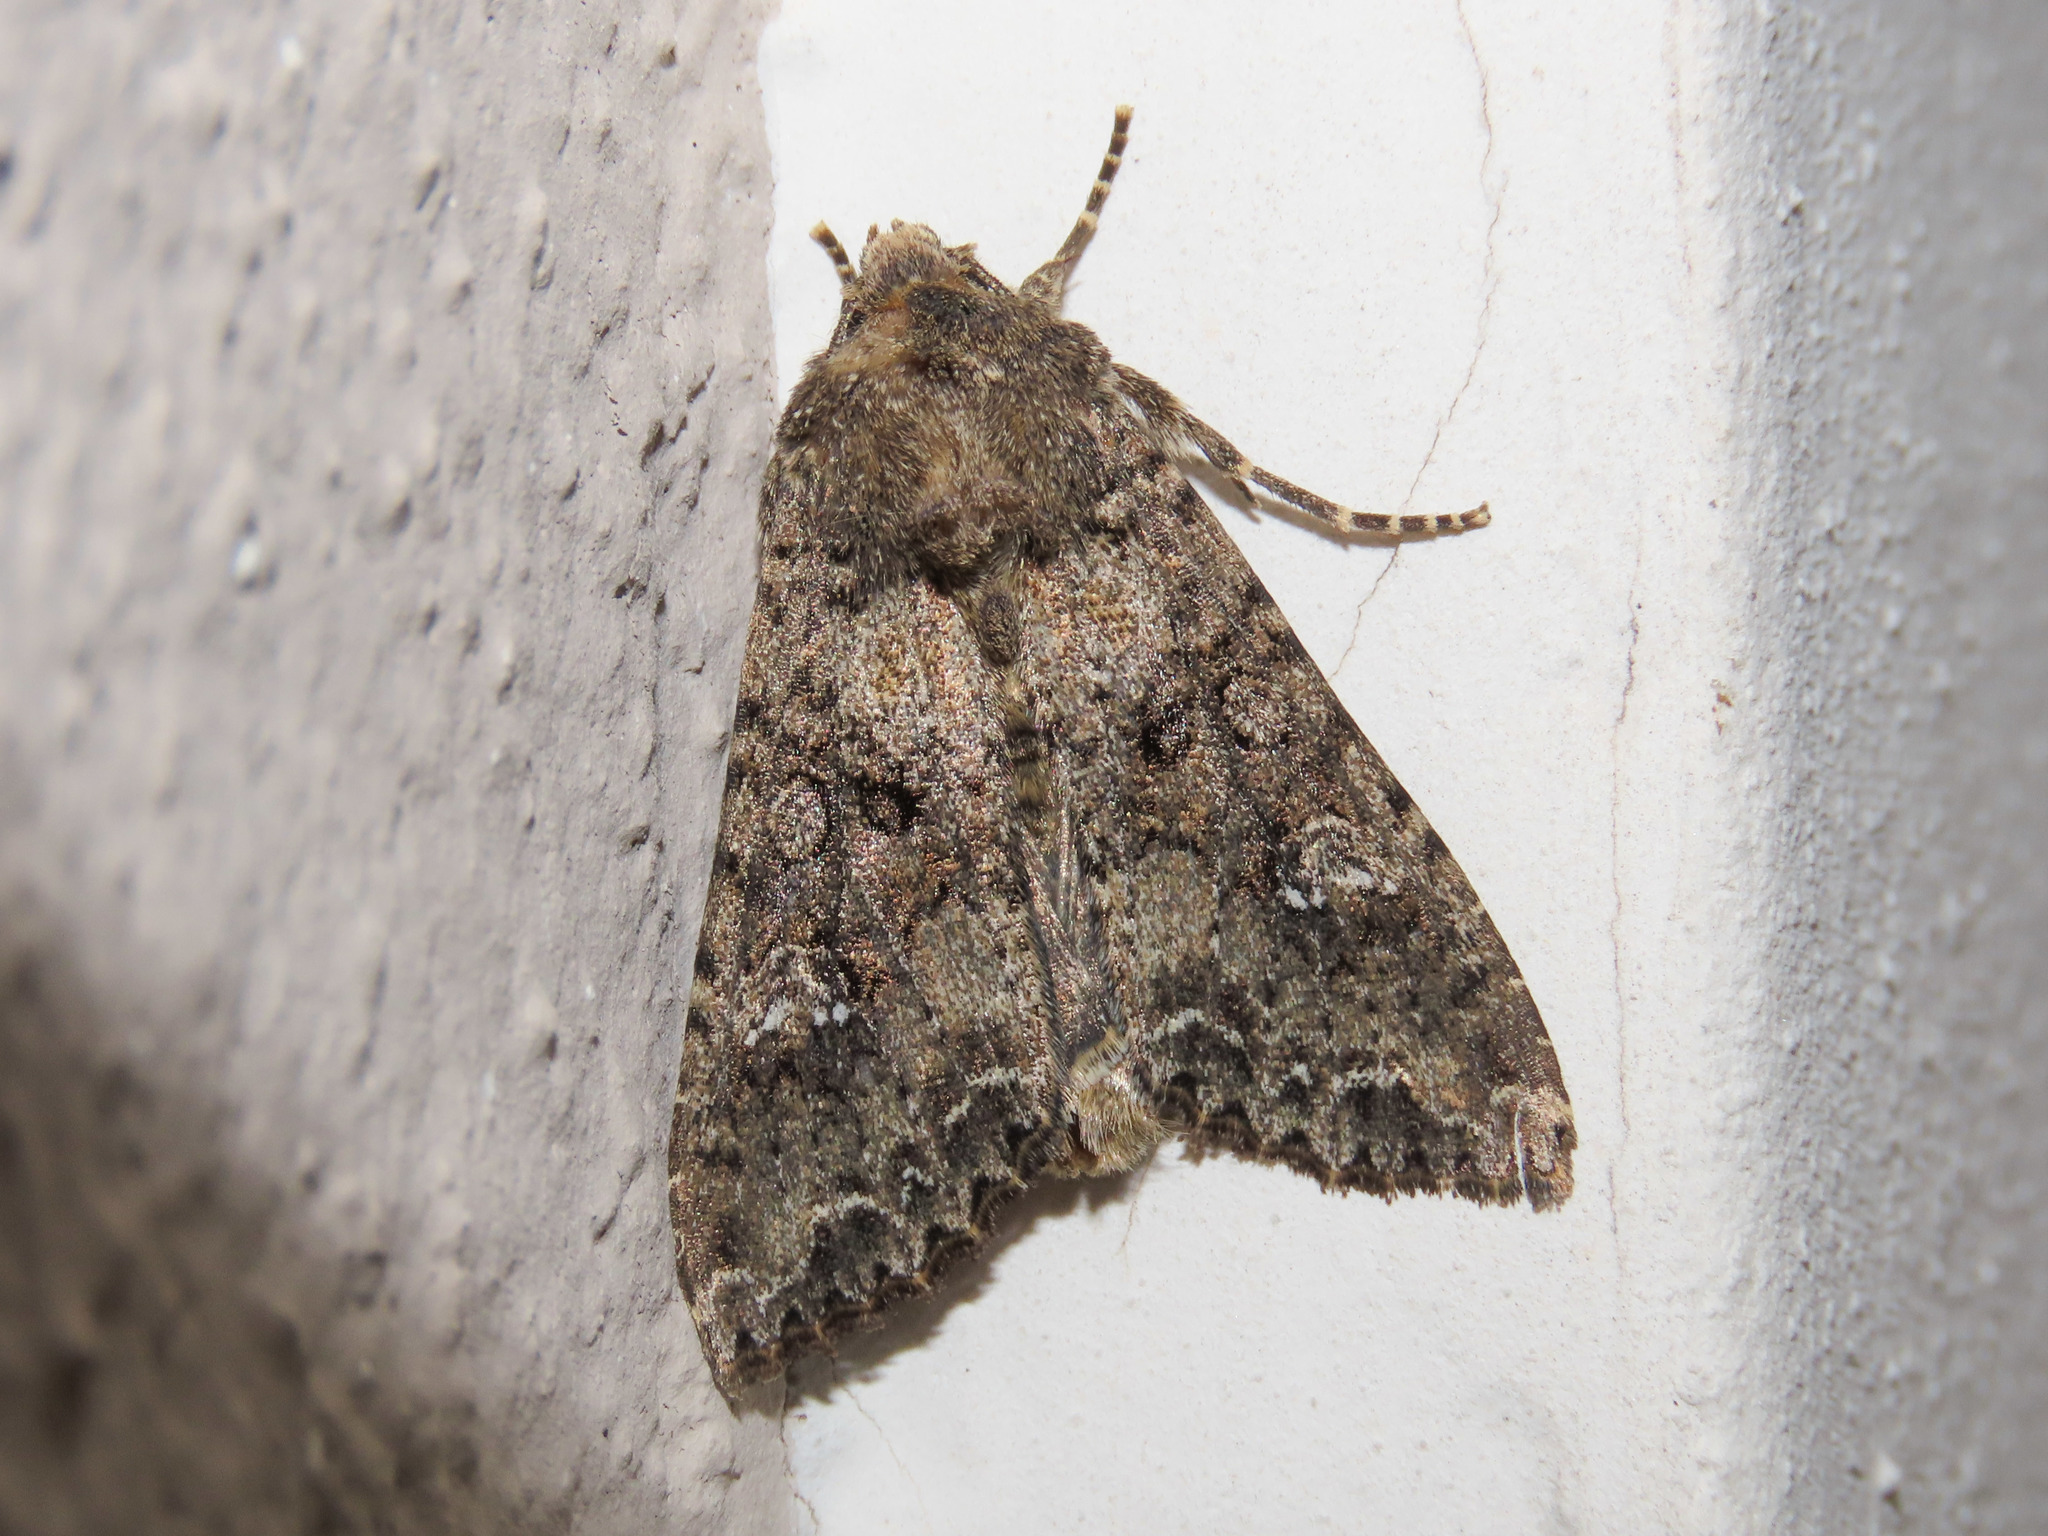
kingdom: Animalia
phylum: Arthropoda
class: Insecta
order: Lepidoptera
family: Noctuidae
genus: Mamestra
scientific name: Mamestra brassicae
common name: Cabbage moth
